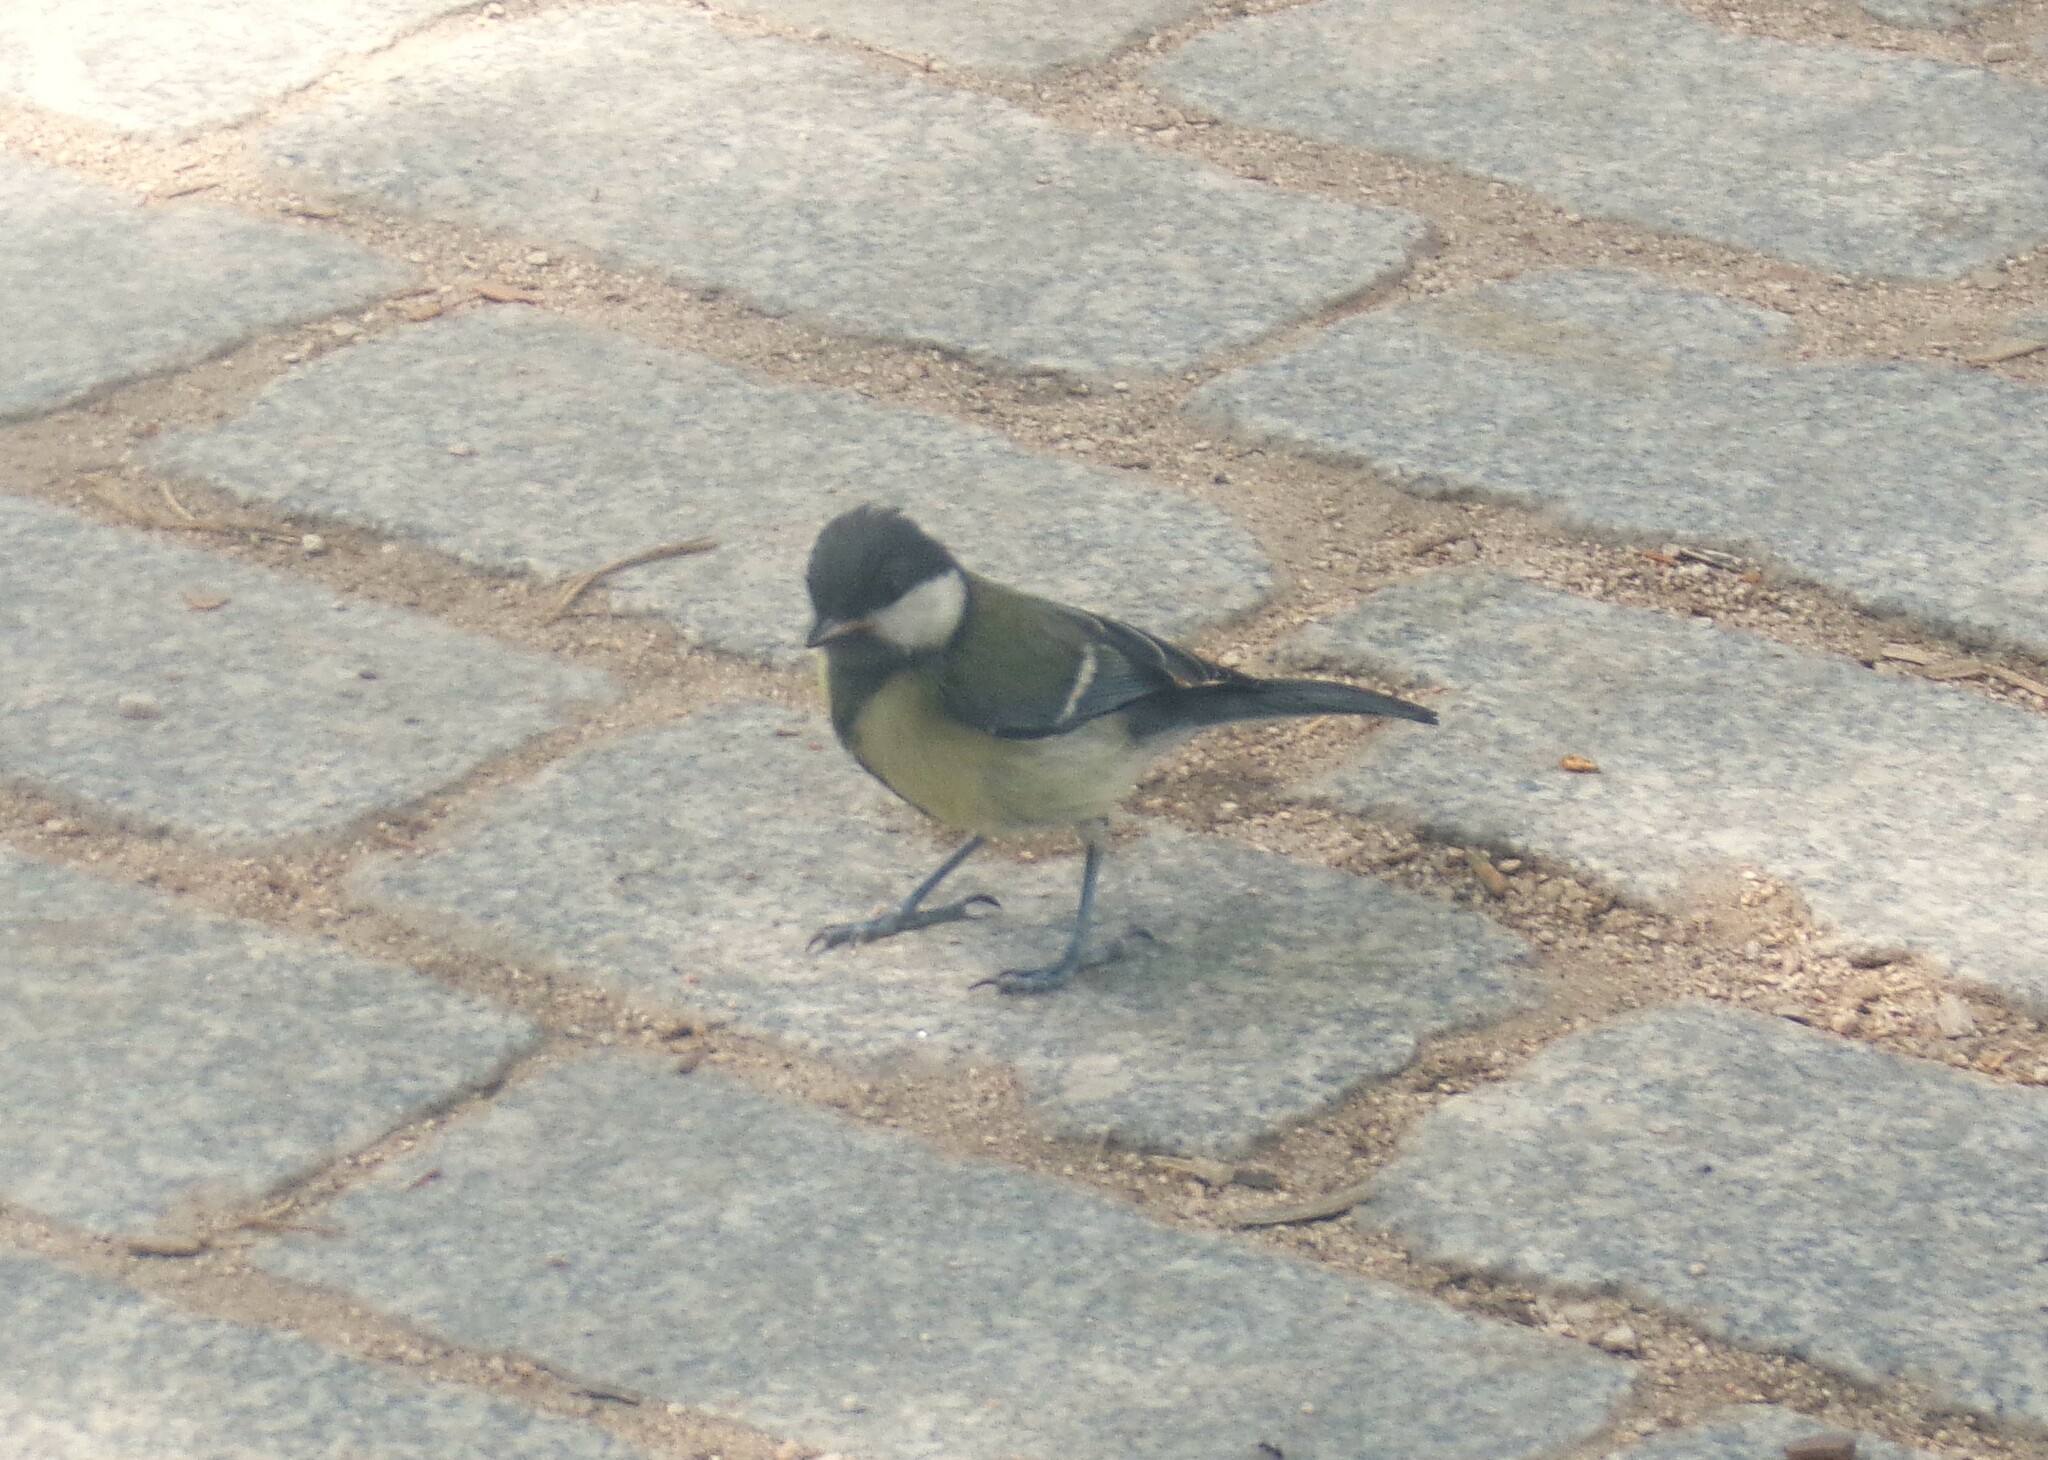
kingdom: Animalia
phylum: Chordata
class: Aves
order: Passeriformes
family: Paridae
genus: Parus
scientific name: Parus major
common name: Great tit
